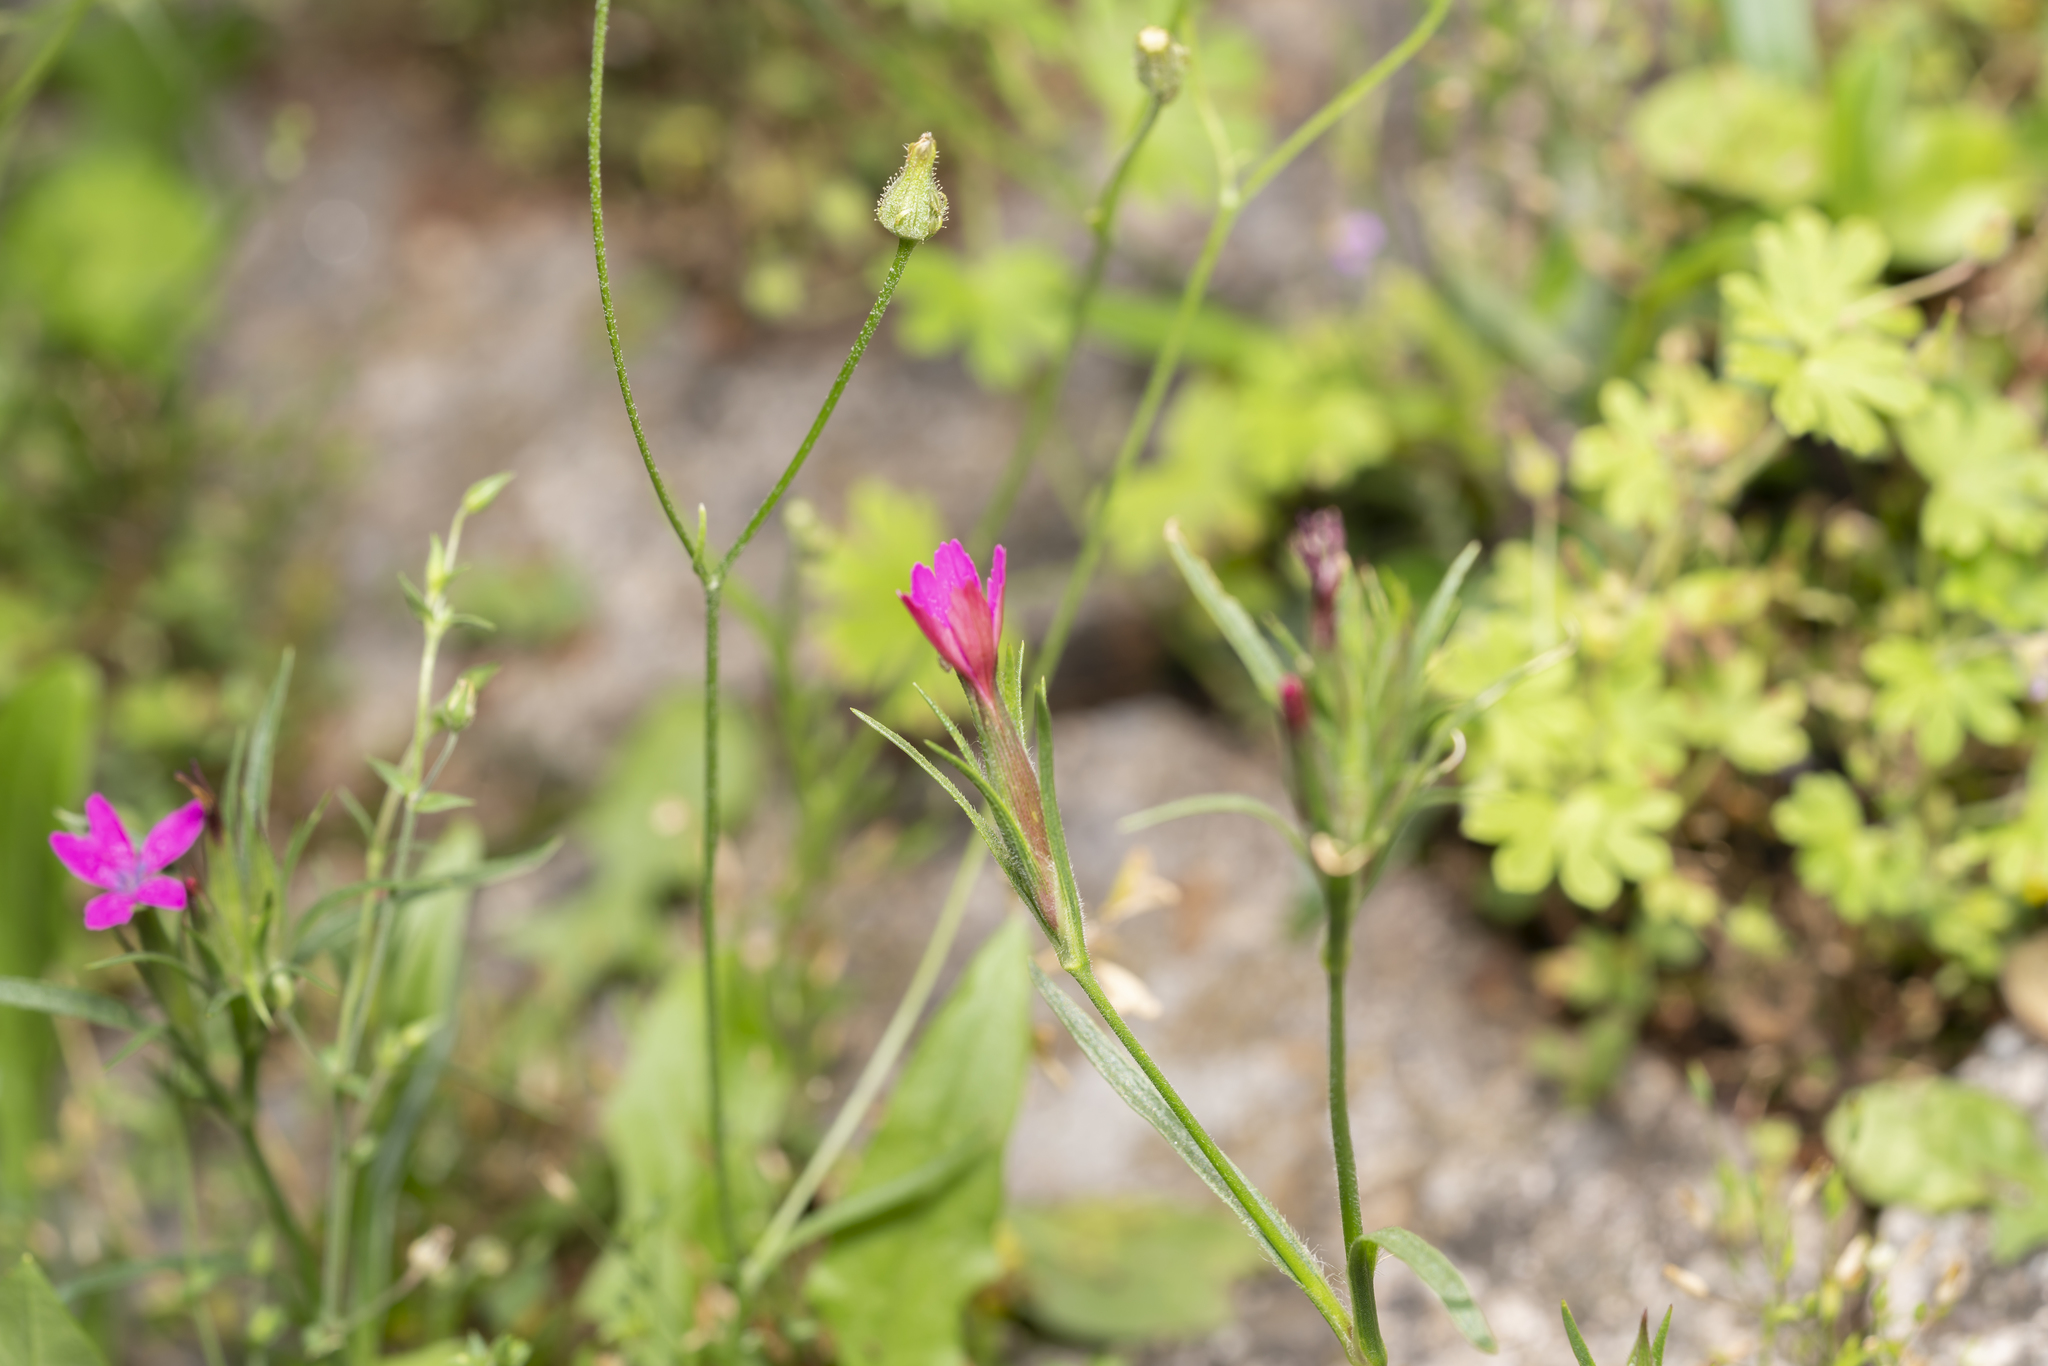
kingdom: Plantae
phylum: Tracheophyta
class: Magnoliopsida
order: Caryophyllales
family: Caryophyllaceae
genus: Dianthus
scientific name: Dianthus armeria
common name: Deptford pink
